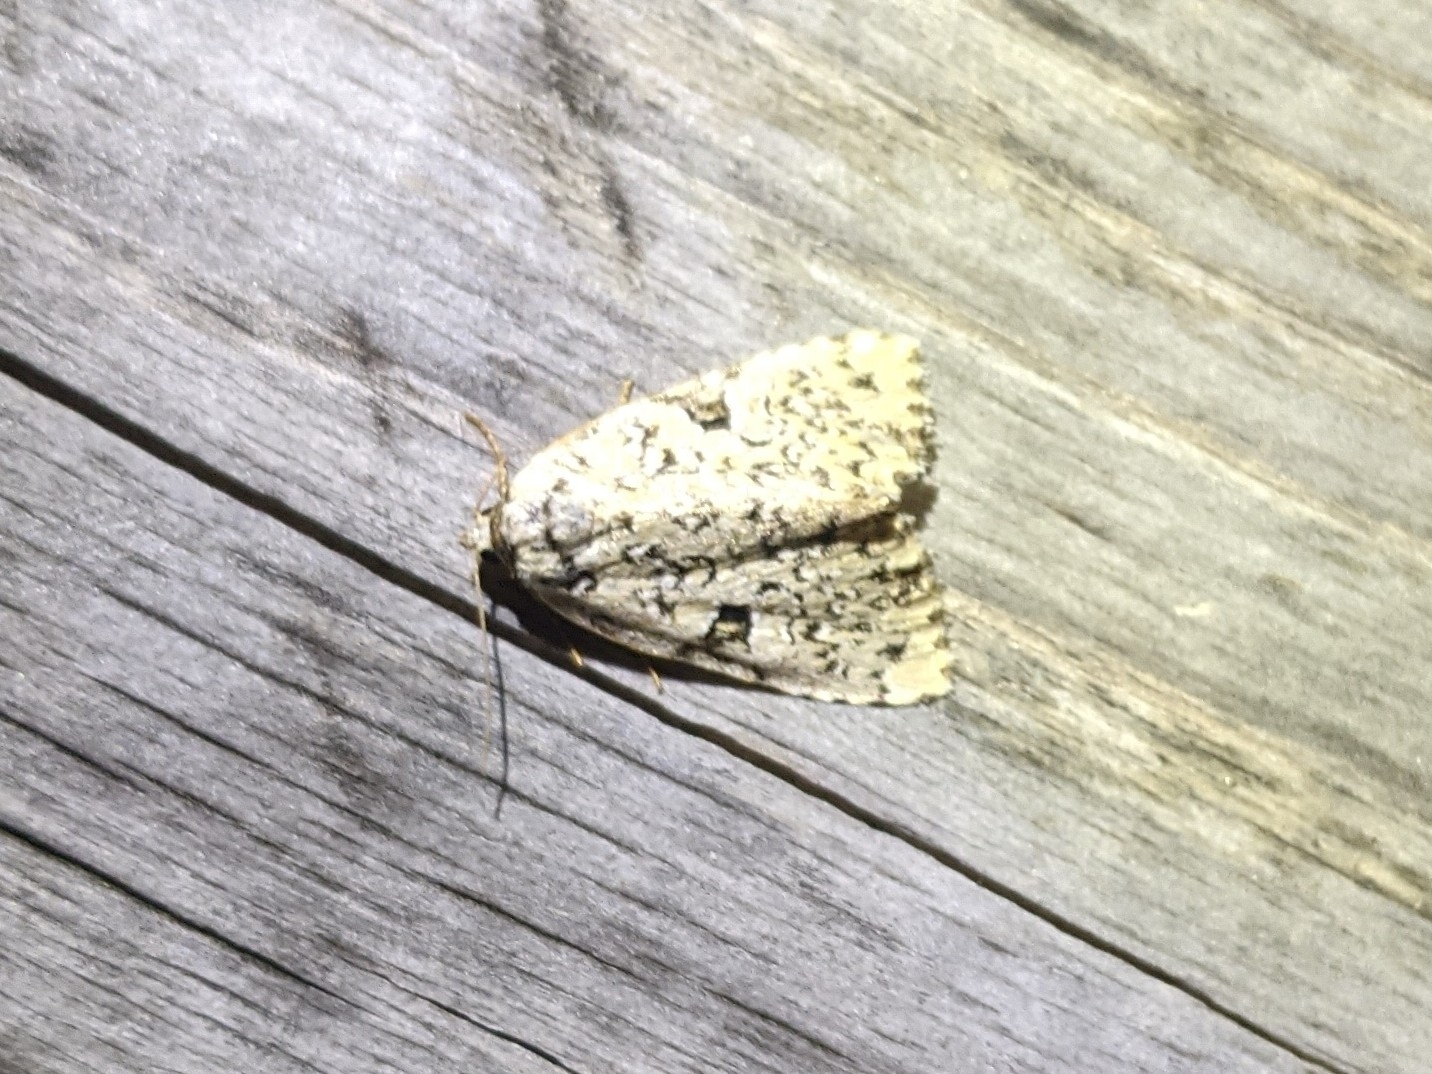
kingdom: Animalia
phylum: Arthropoda
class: Insecta
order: Lepidoptera
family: Noctuidae
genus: Leuconycta
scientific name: Leuconycta diphteroides
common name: Green leuconycta moth
